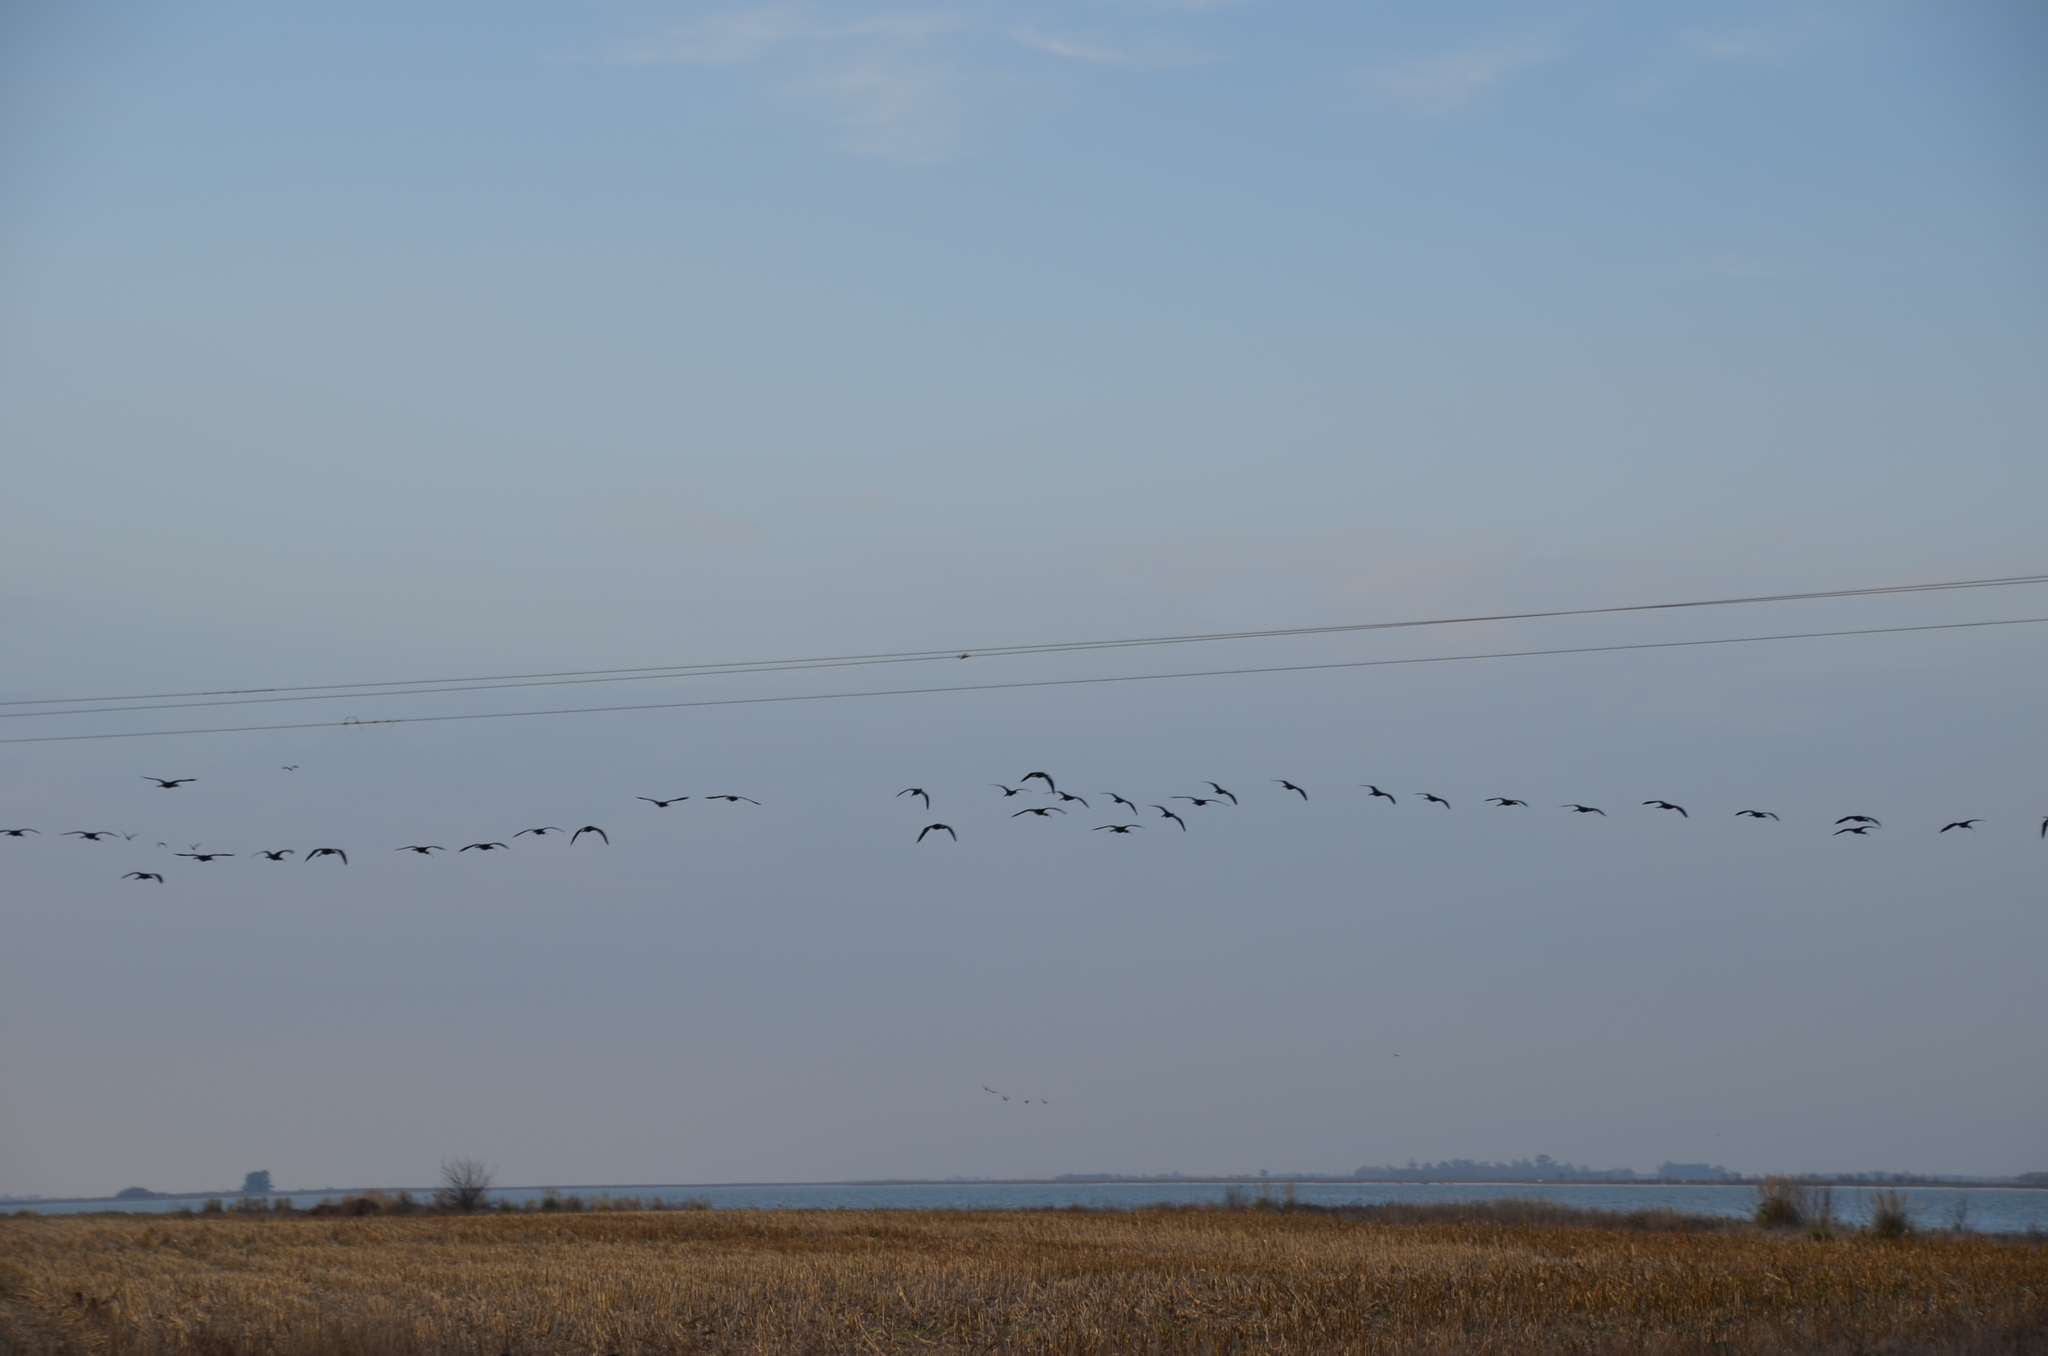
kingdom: Animalia
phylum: Chordata
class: Aves
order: Pelecaniformes
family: Threskiornithidae
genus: Plegadis
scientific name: Plegadis chihi
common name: White-faced ibis
